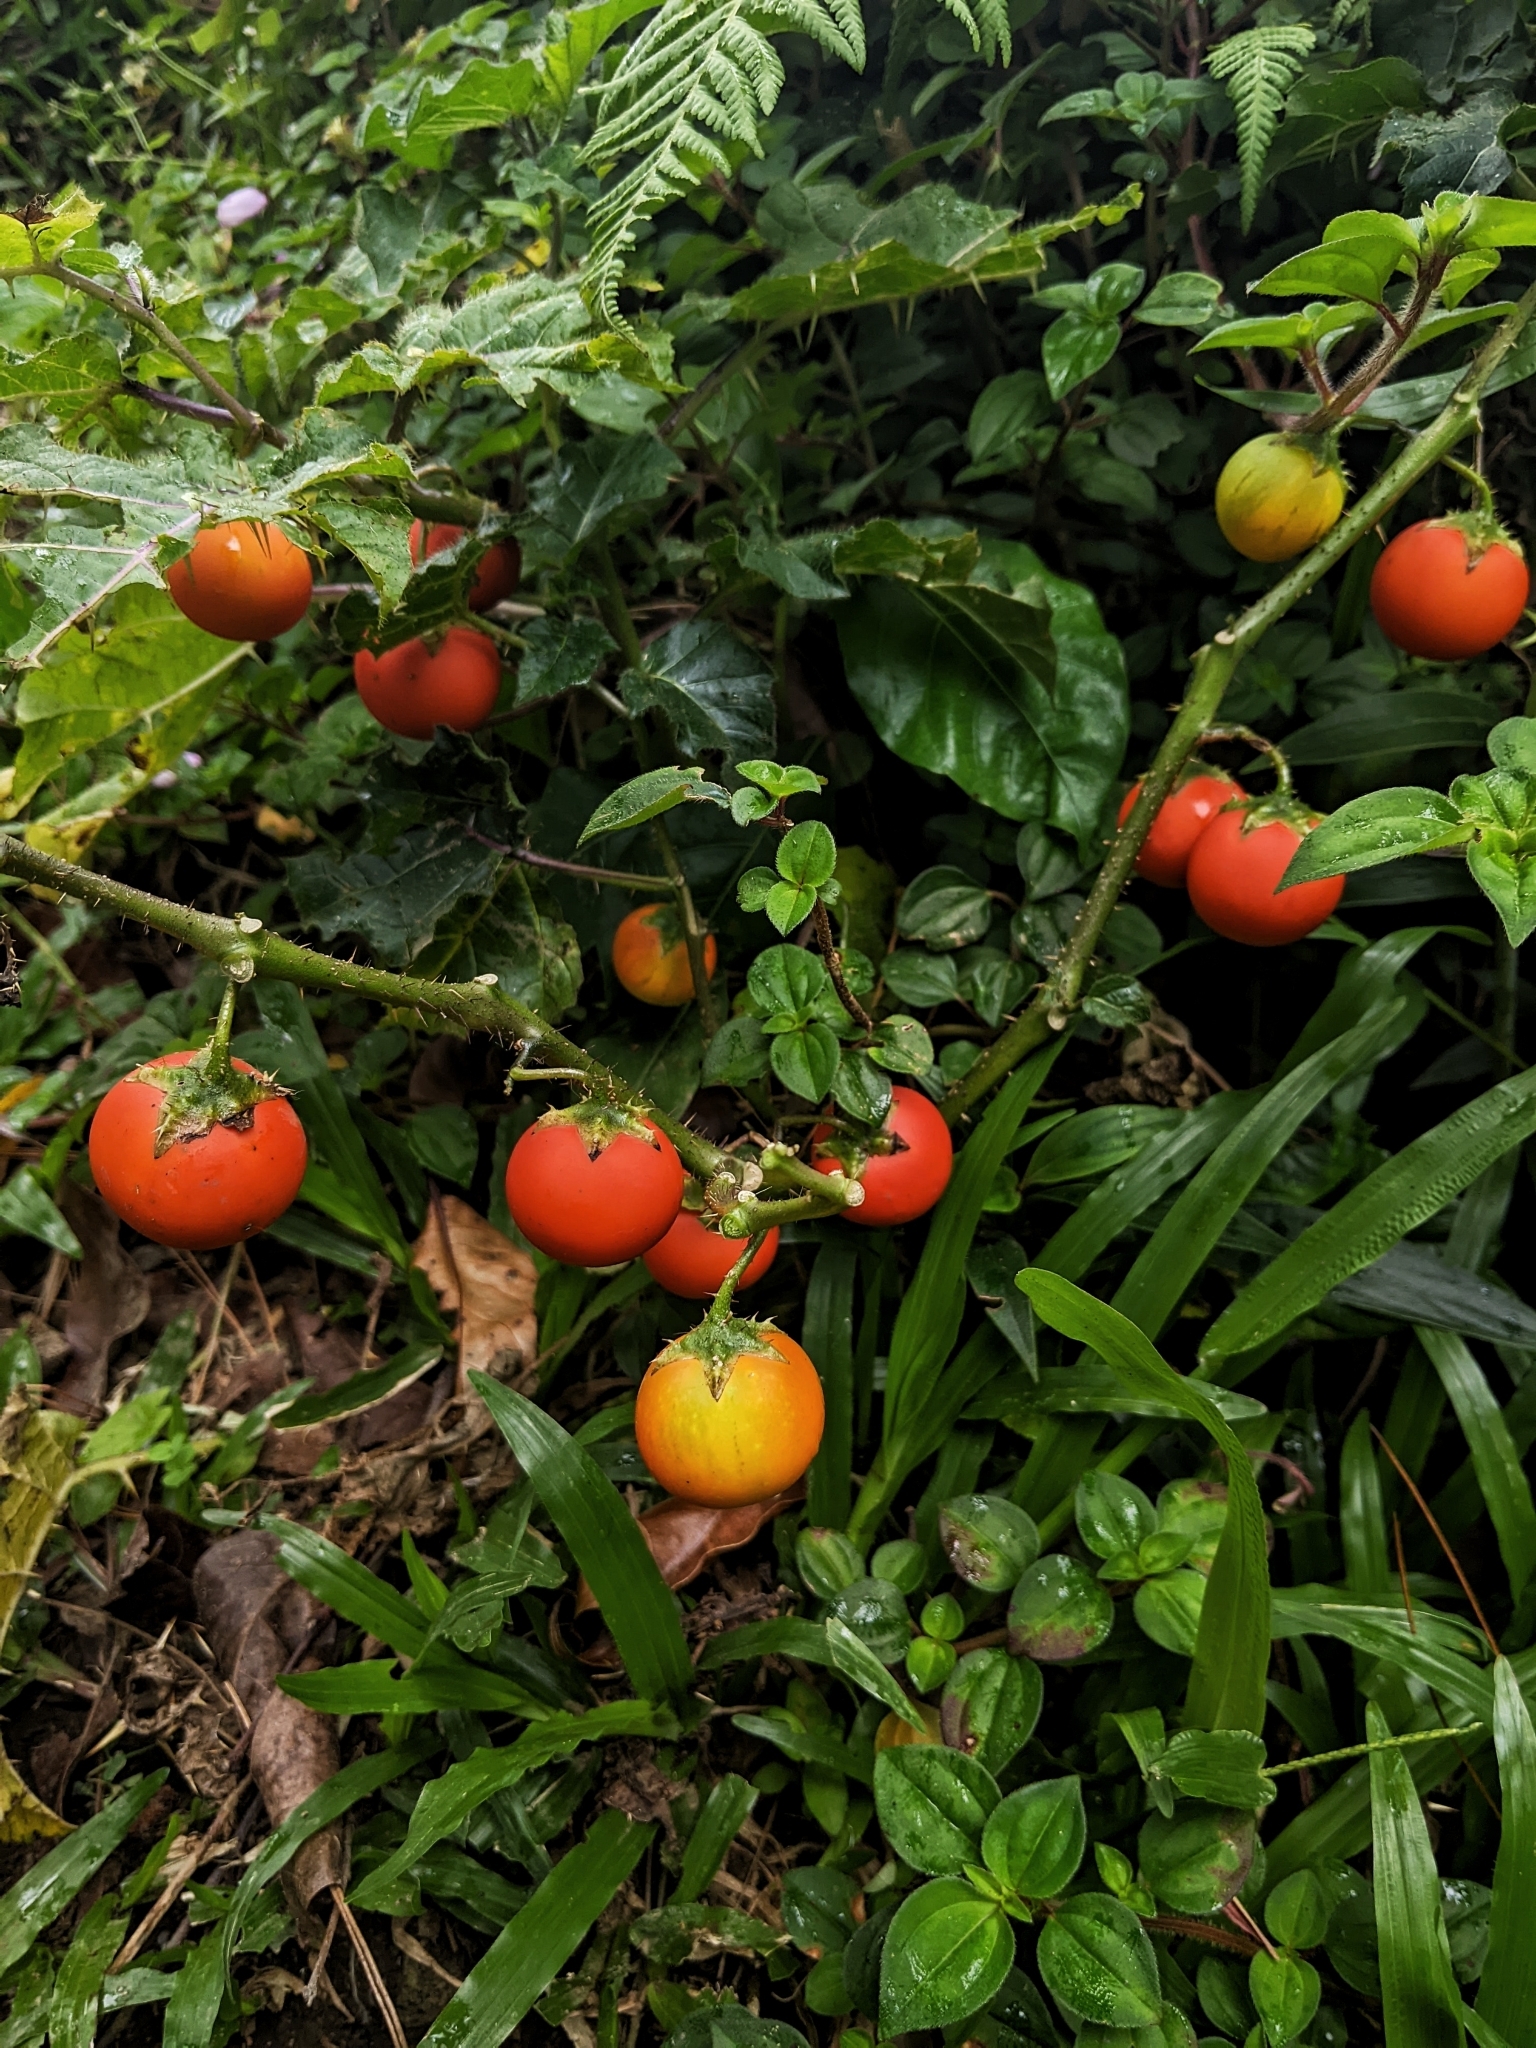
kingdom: Plantae
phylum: Tracheophyta
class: Magnoliopsida
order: Solanales
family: Solanaceae
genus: Solanum
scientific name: Solanum capsicoides
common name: Cockroach berry
